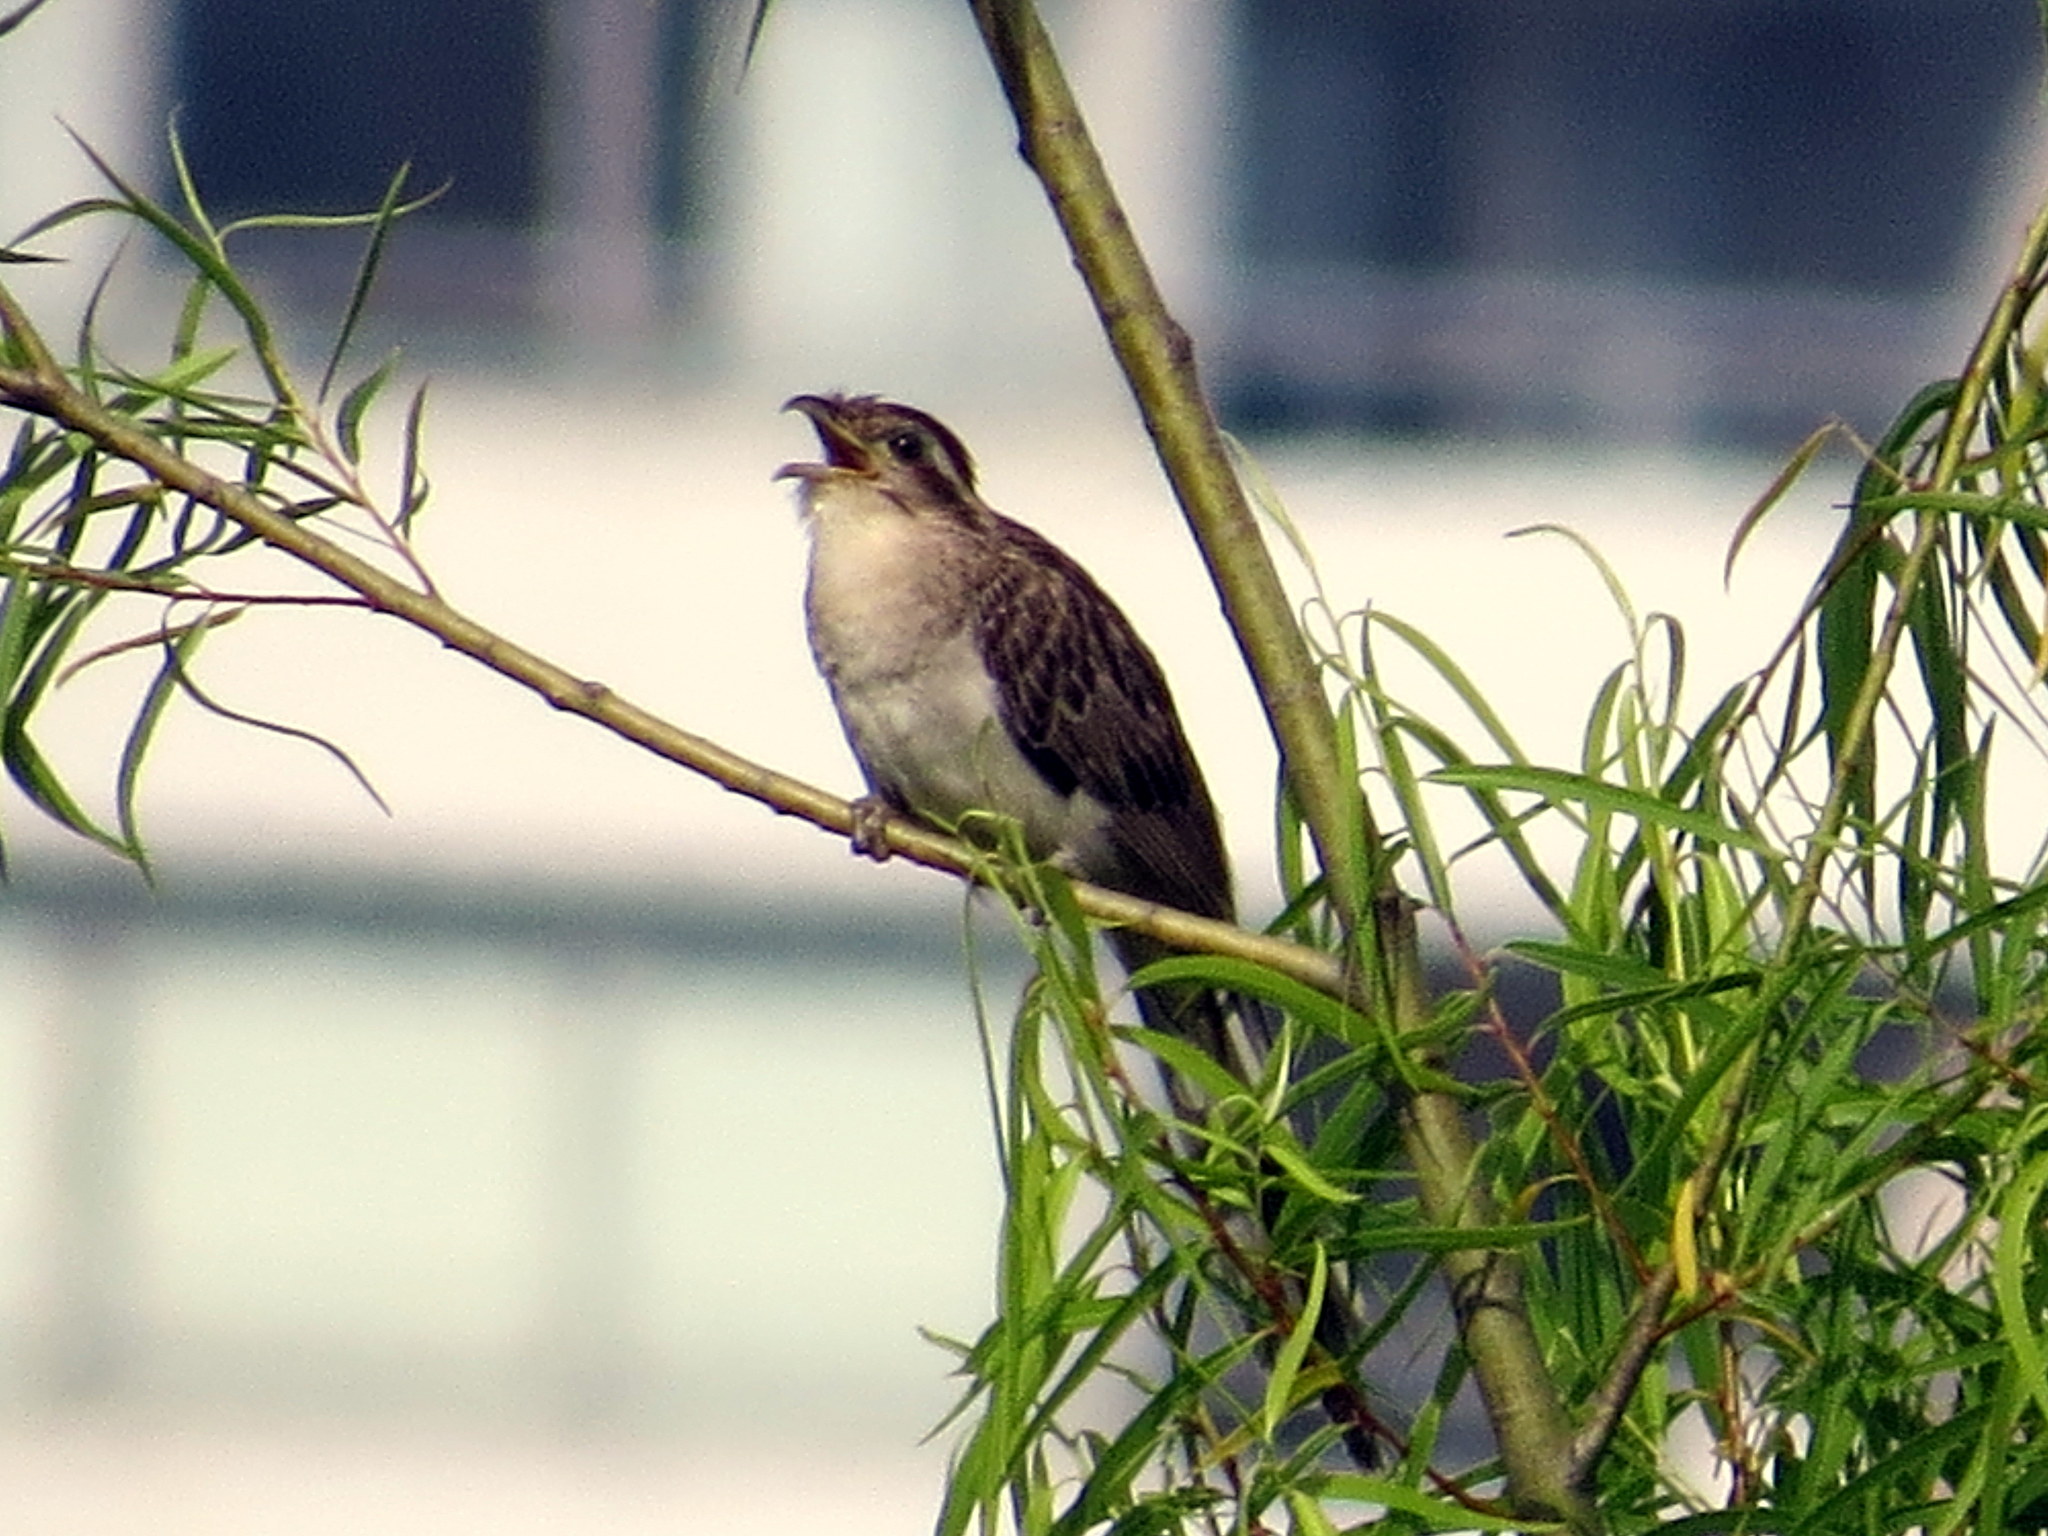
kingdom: Animalia
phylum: Chordata
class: Aves
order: Cuculiformes
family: Cuculidae
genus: Tapera
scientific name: Tapera naevia
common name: Striped cuckoo
